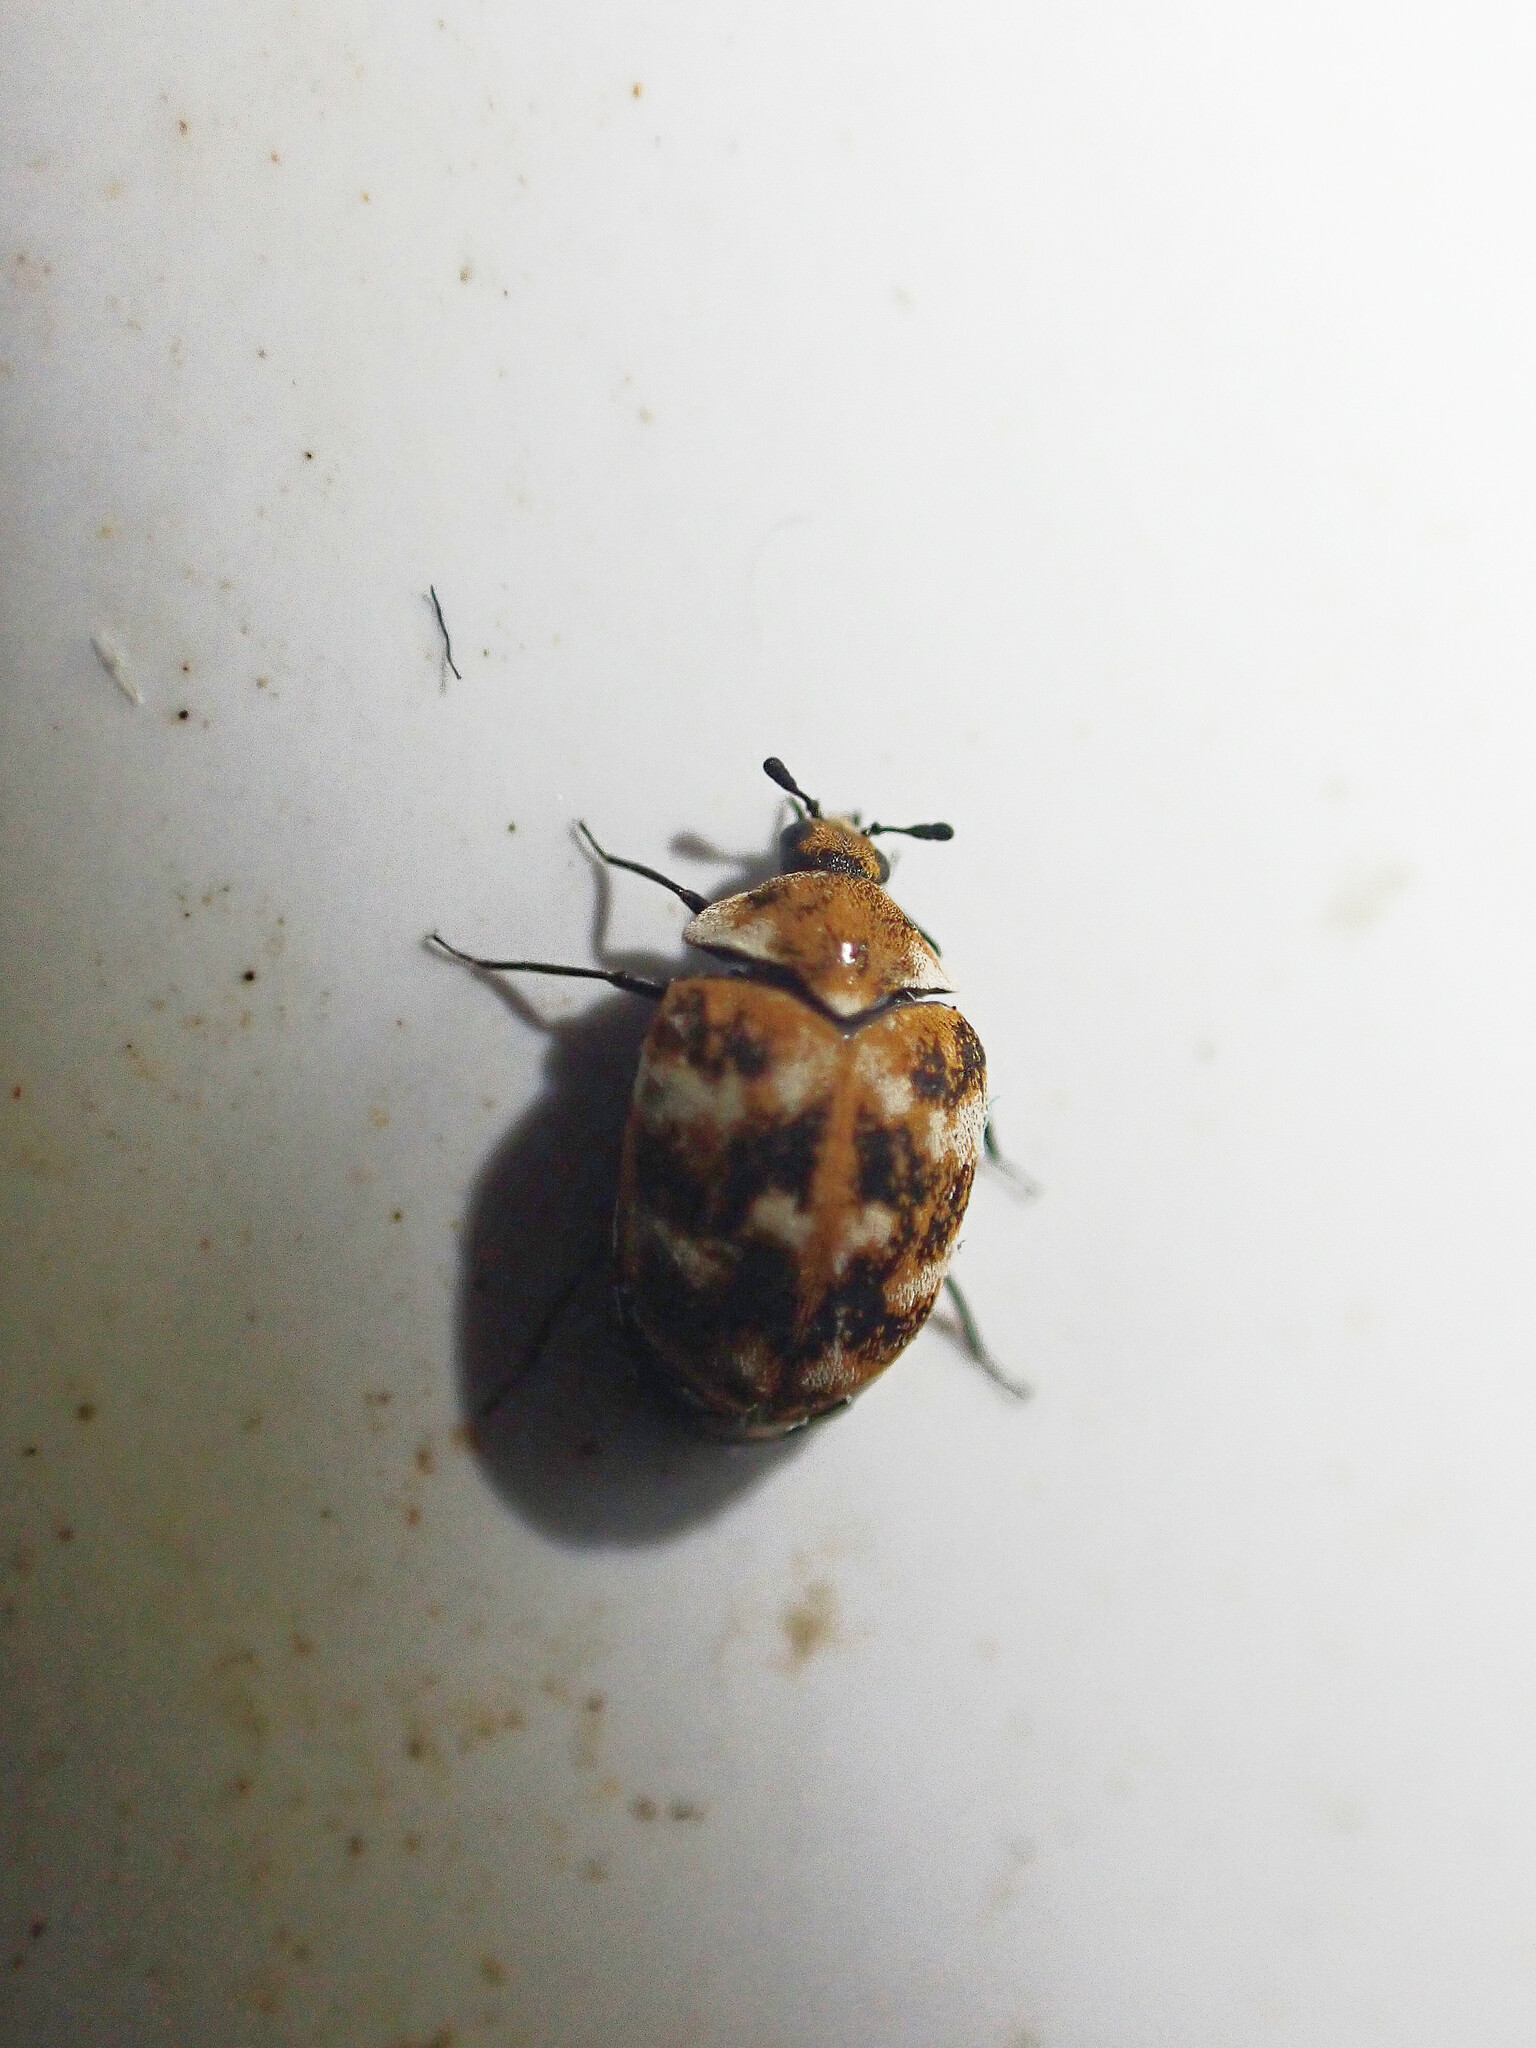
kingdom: Animalia
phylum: Arthropoda
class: Insecta
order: Coleoptera
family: Dermestidae
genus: Anthrenus
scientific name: Anthrenus verbasci
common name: Varied carpet beetle
